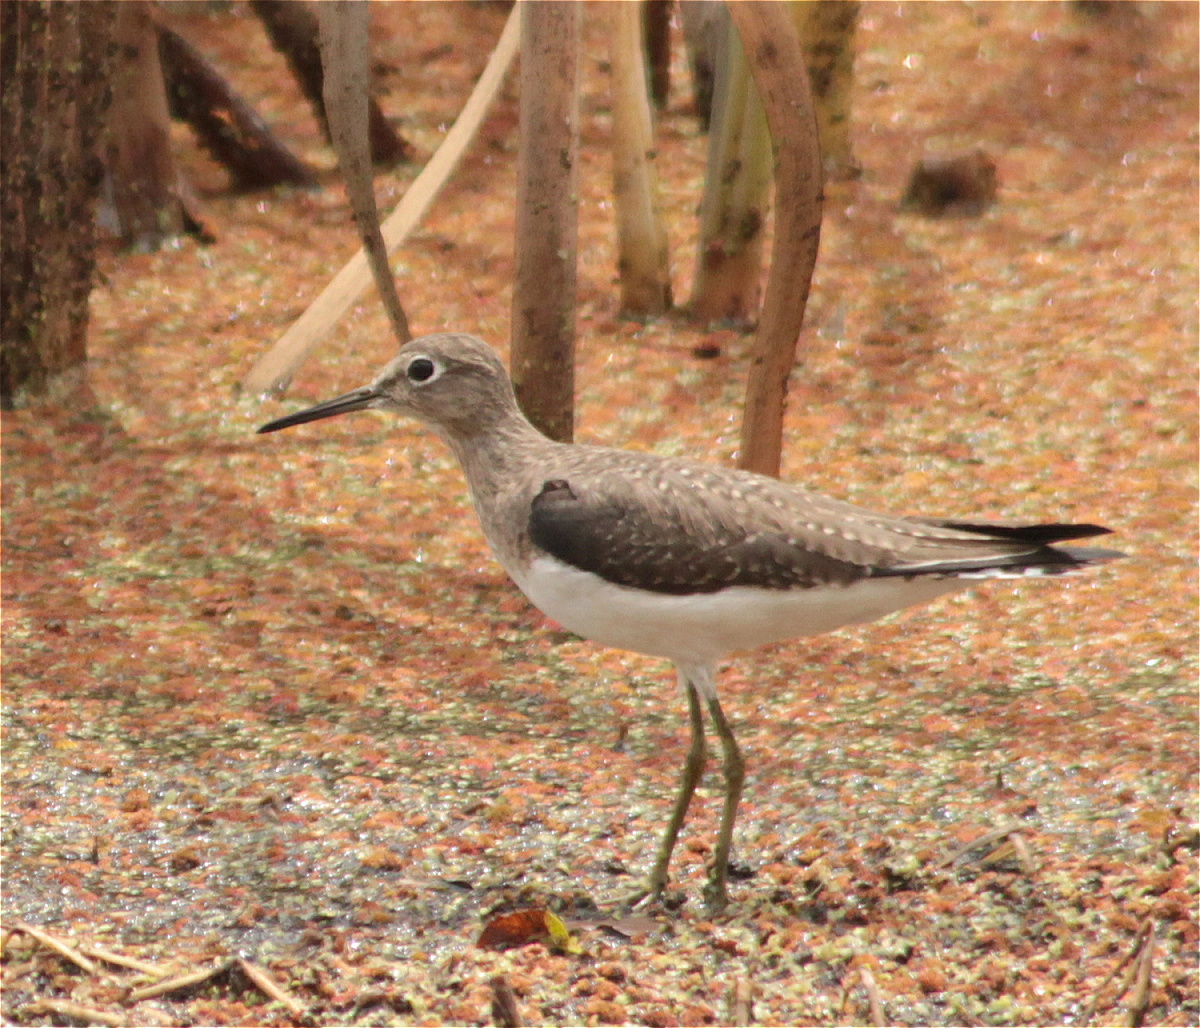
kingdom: Animalia
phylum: Chordata
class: Aves
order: Charadriiformes
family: Scolopacidae
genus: Tringa
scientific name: Tringa solitaria
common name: Solitary sandpiper
